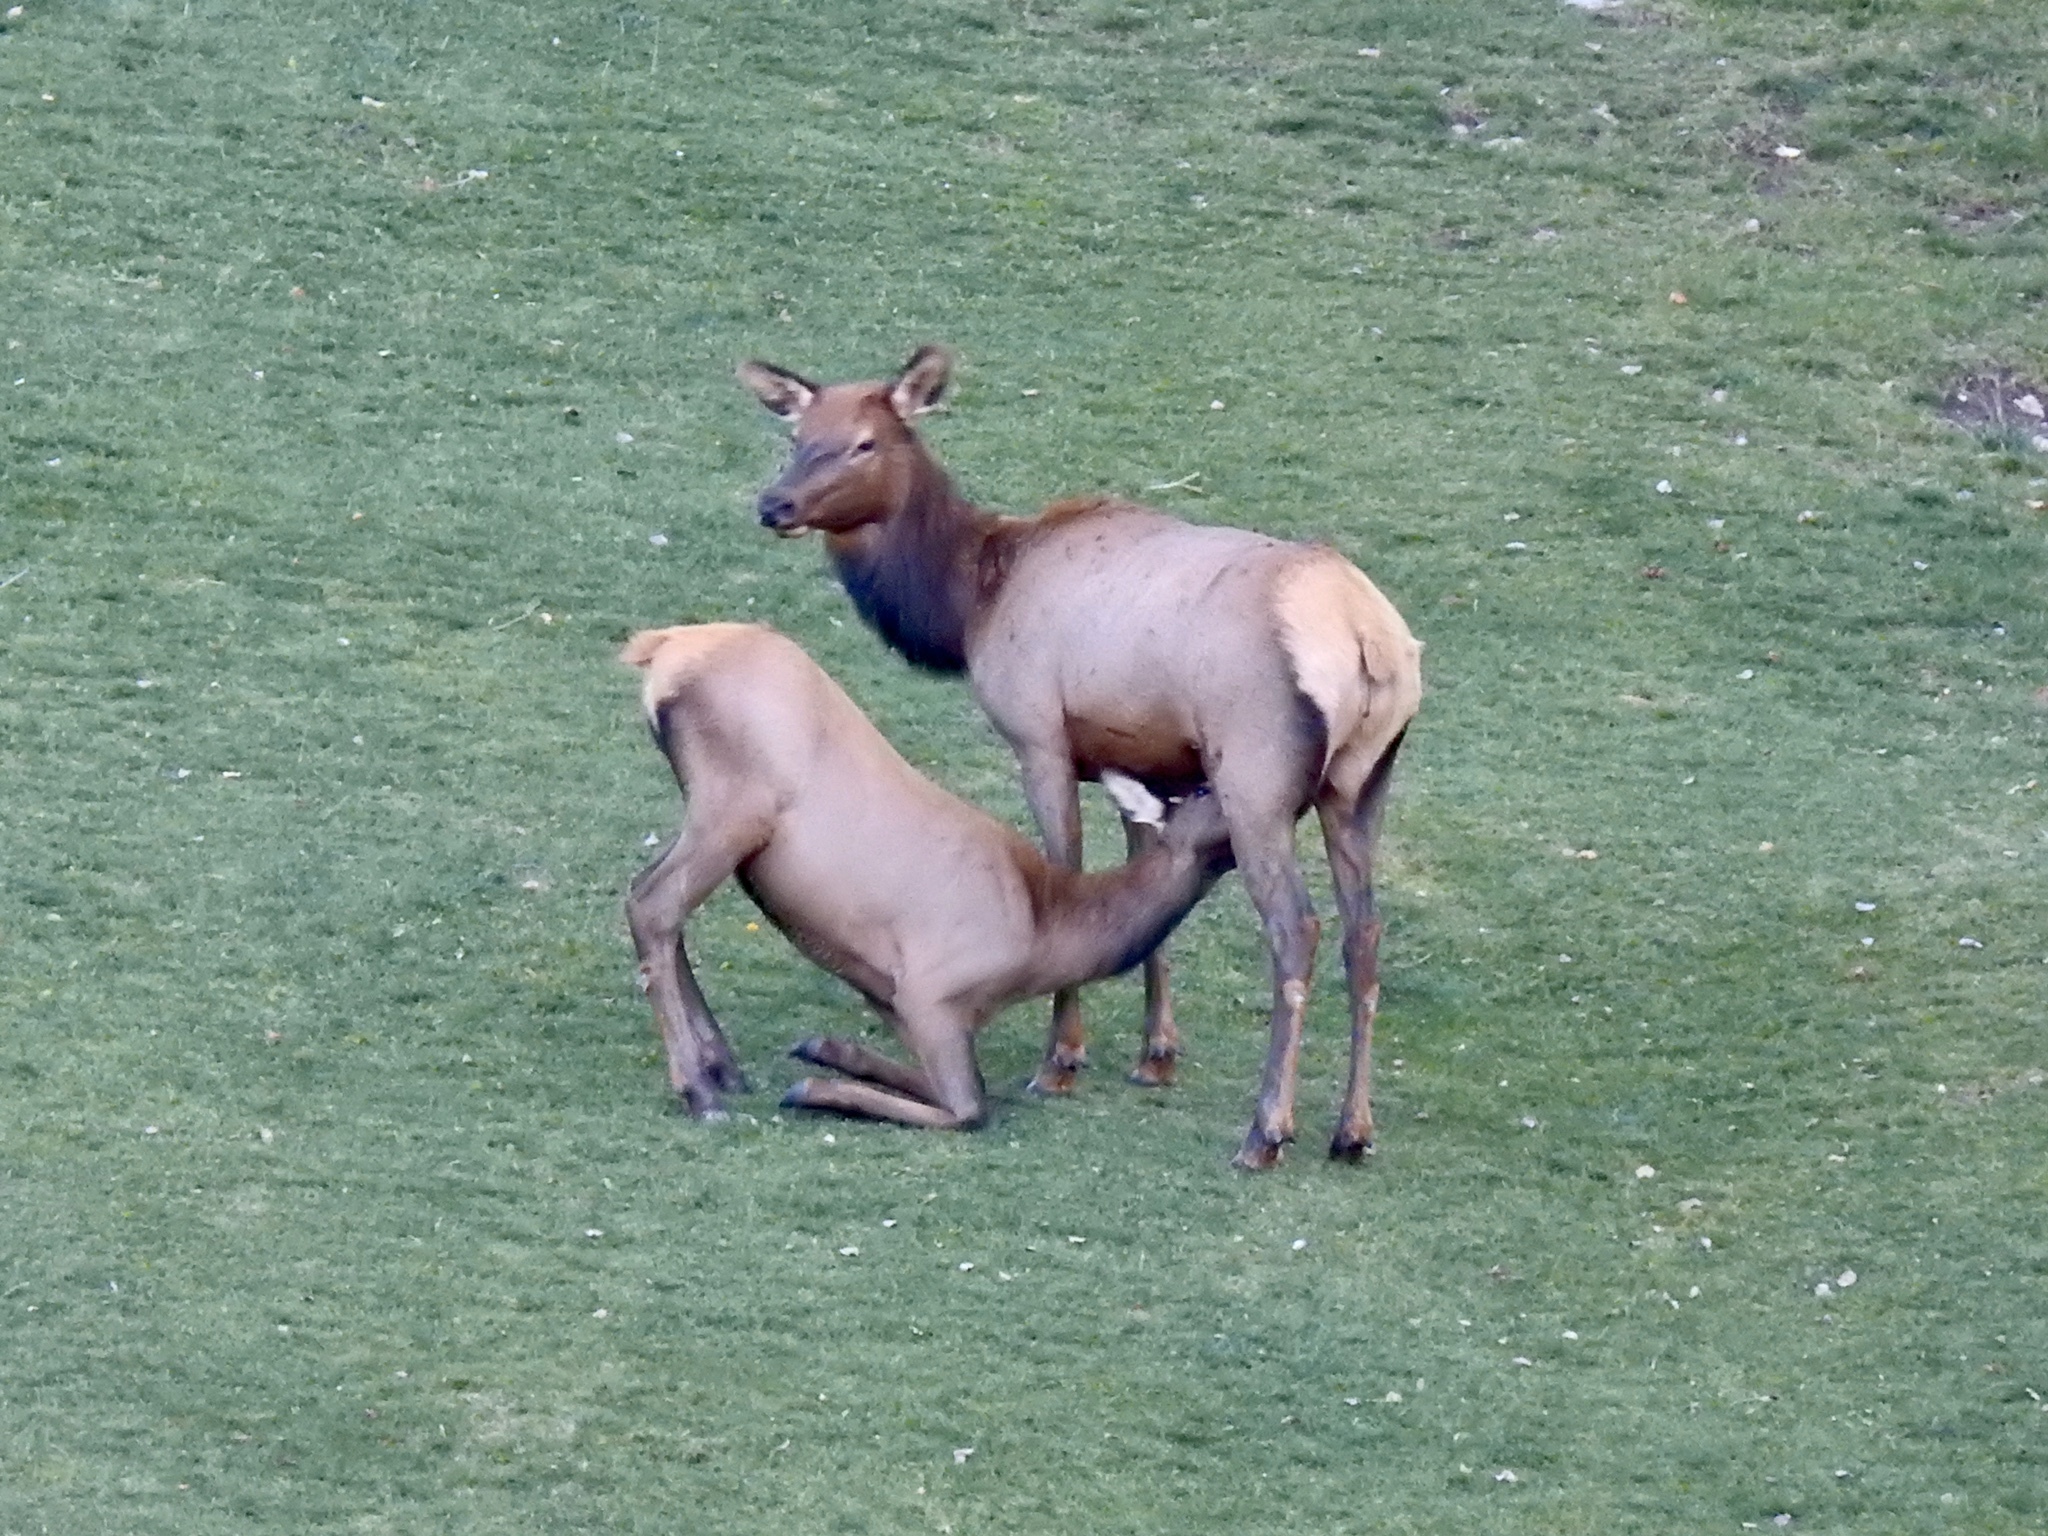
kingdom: Animalia
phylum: Chordata
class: Mammalia
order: Artiodactyla
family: Cervidae
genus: Cervus
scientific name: Cervus elaphus
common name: Red deer
